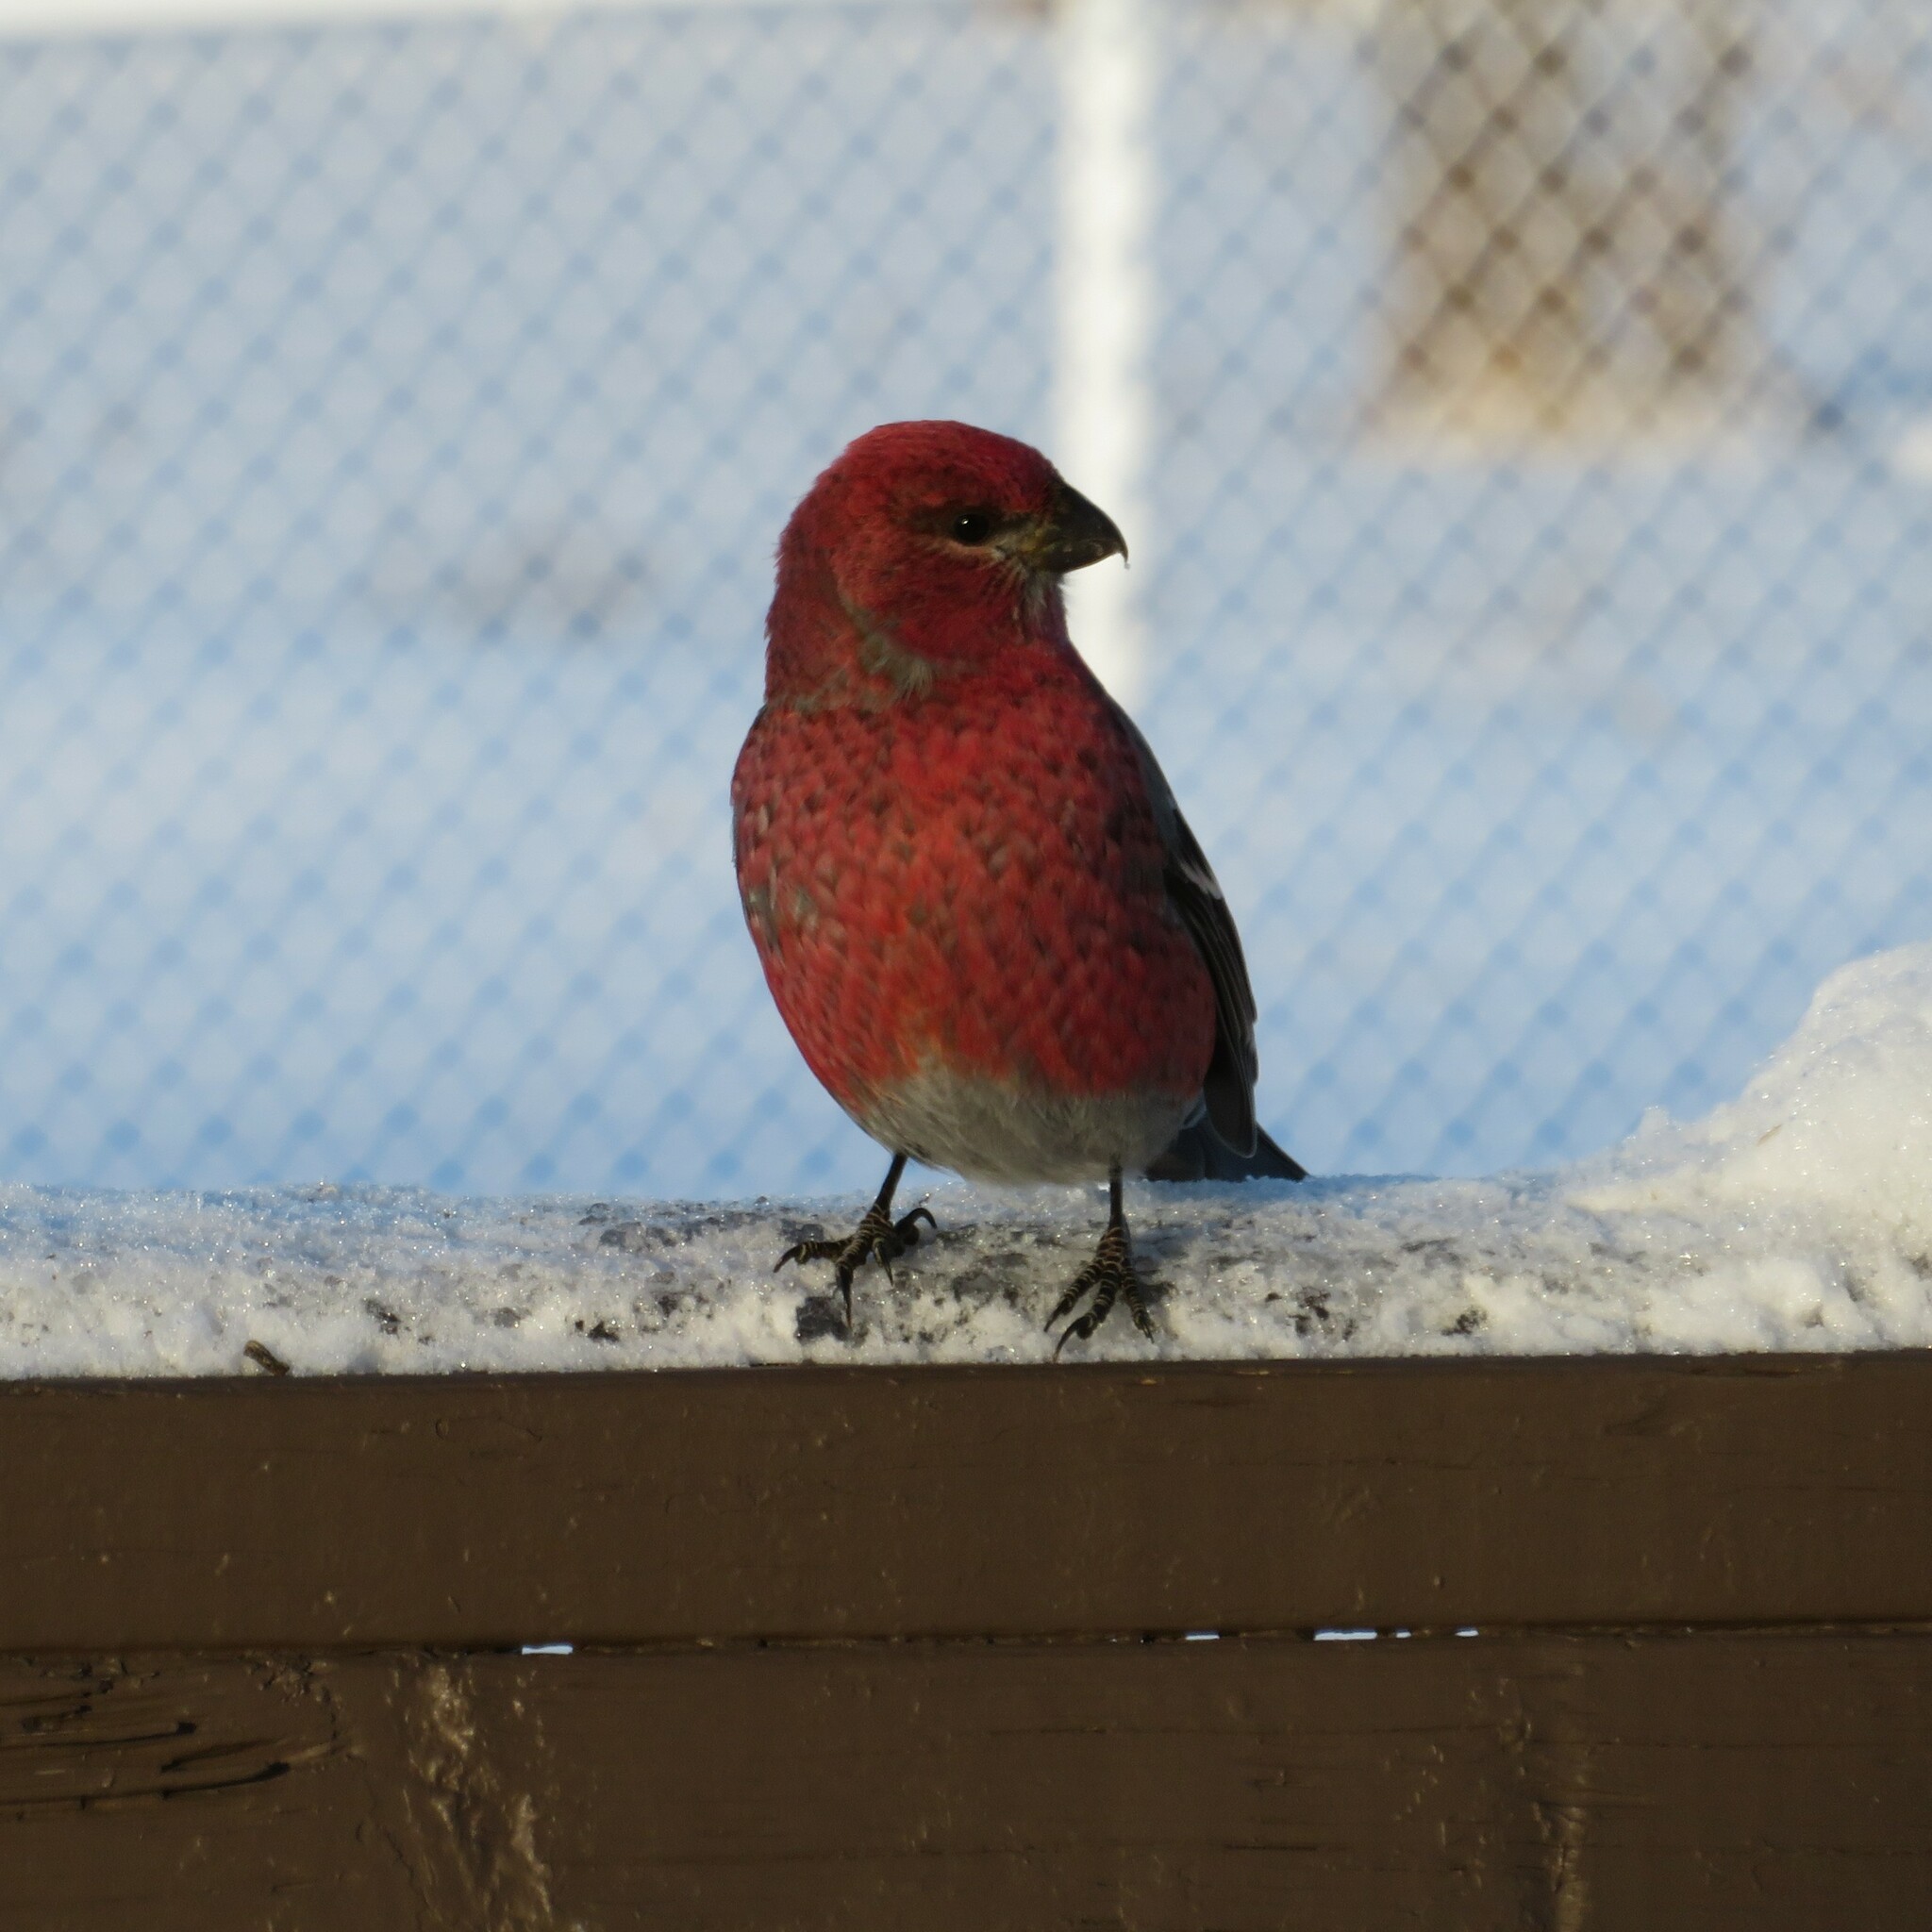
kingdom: Animalia
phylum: Chordata
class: Aves
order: Passeriformes
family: Fringillidae
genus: Pinicola
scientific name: Pinicola enucleator
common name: Pine grosbeak
